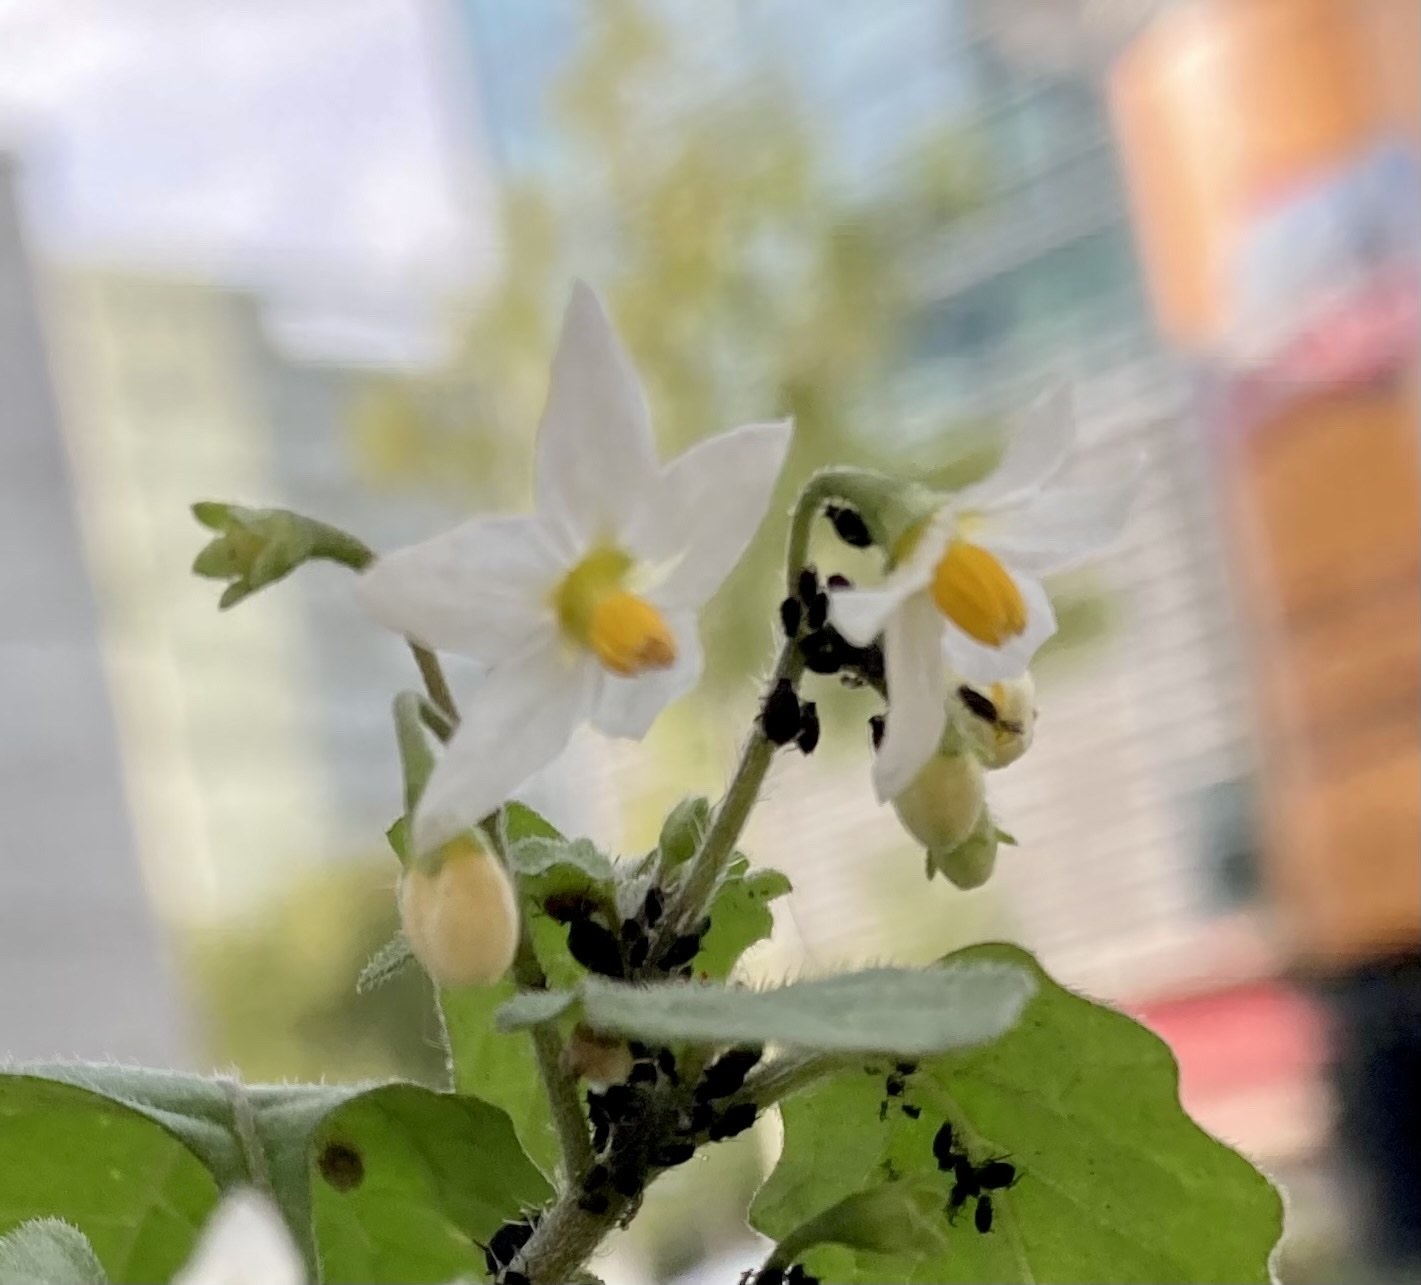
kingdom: Plantae
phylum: Tracheophyta
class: Magnoliopsida
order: Solanales
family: Solanaceae
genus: Solanum
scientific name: Solanum nigrum
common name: Black nightshade
